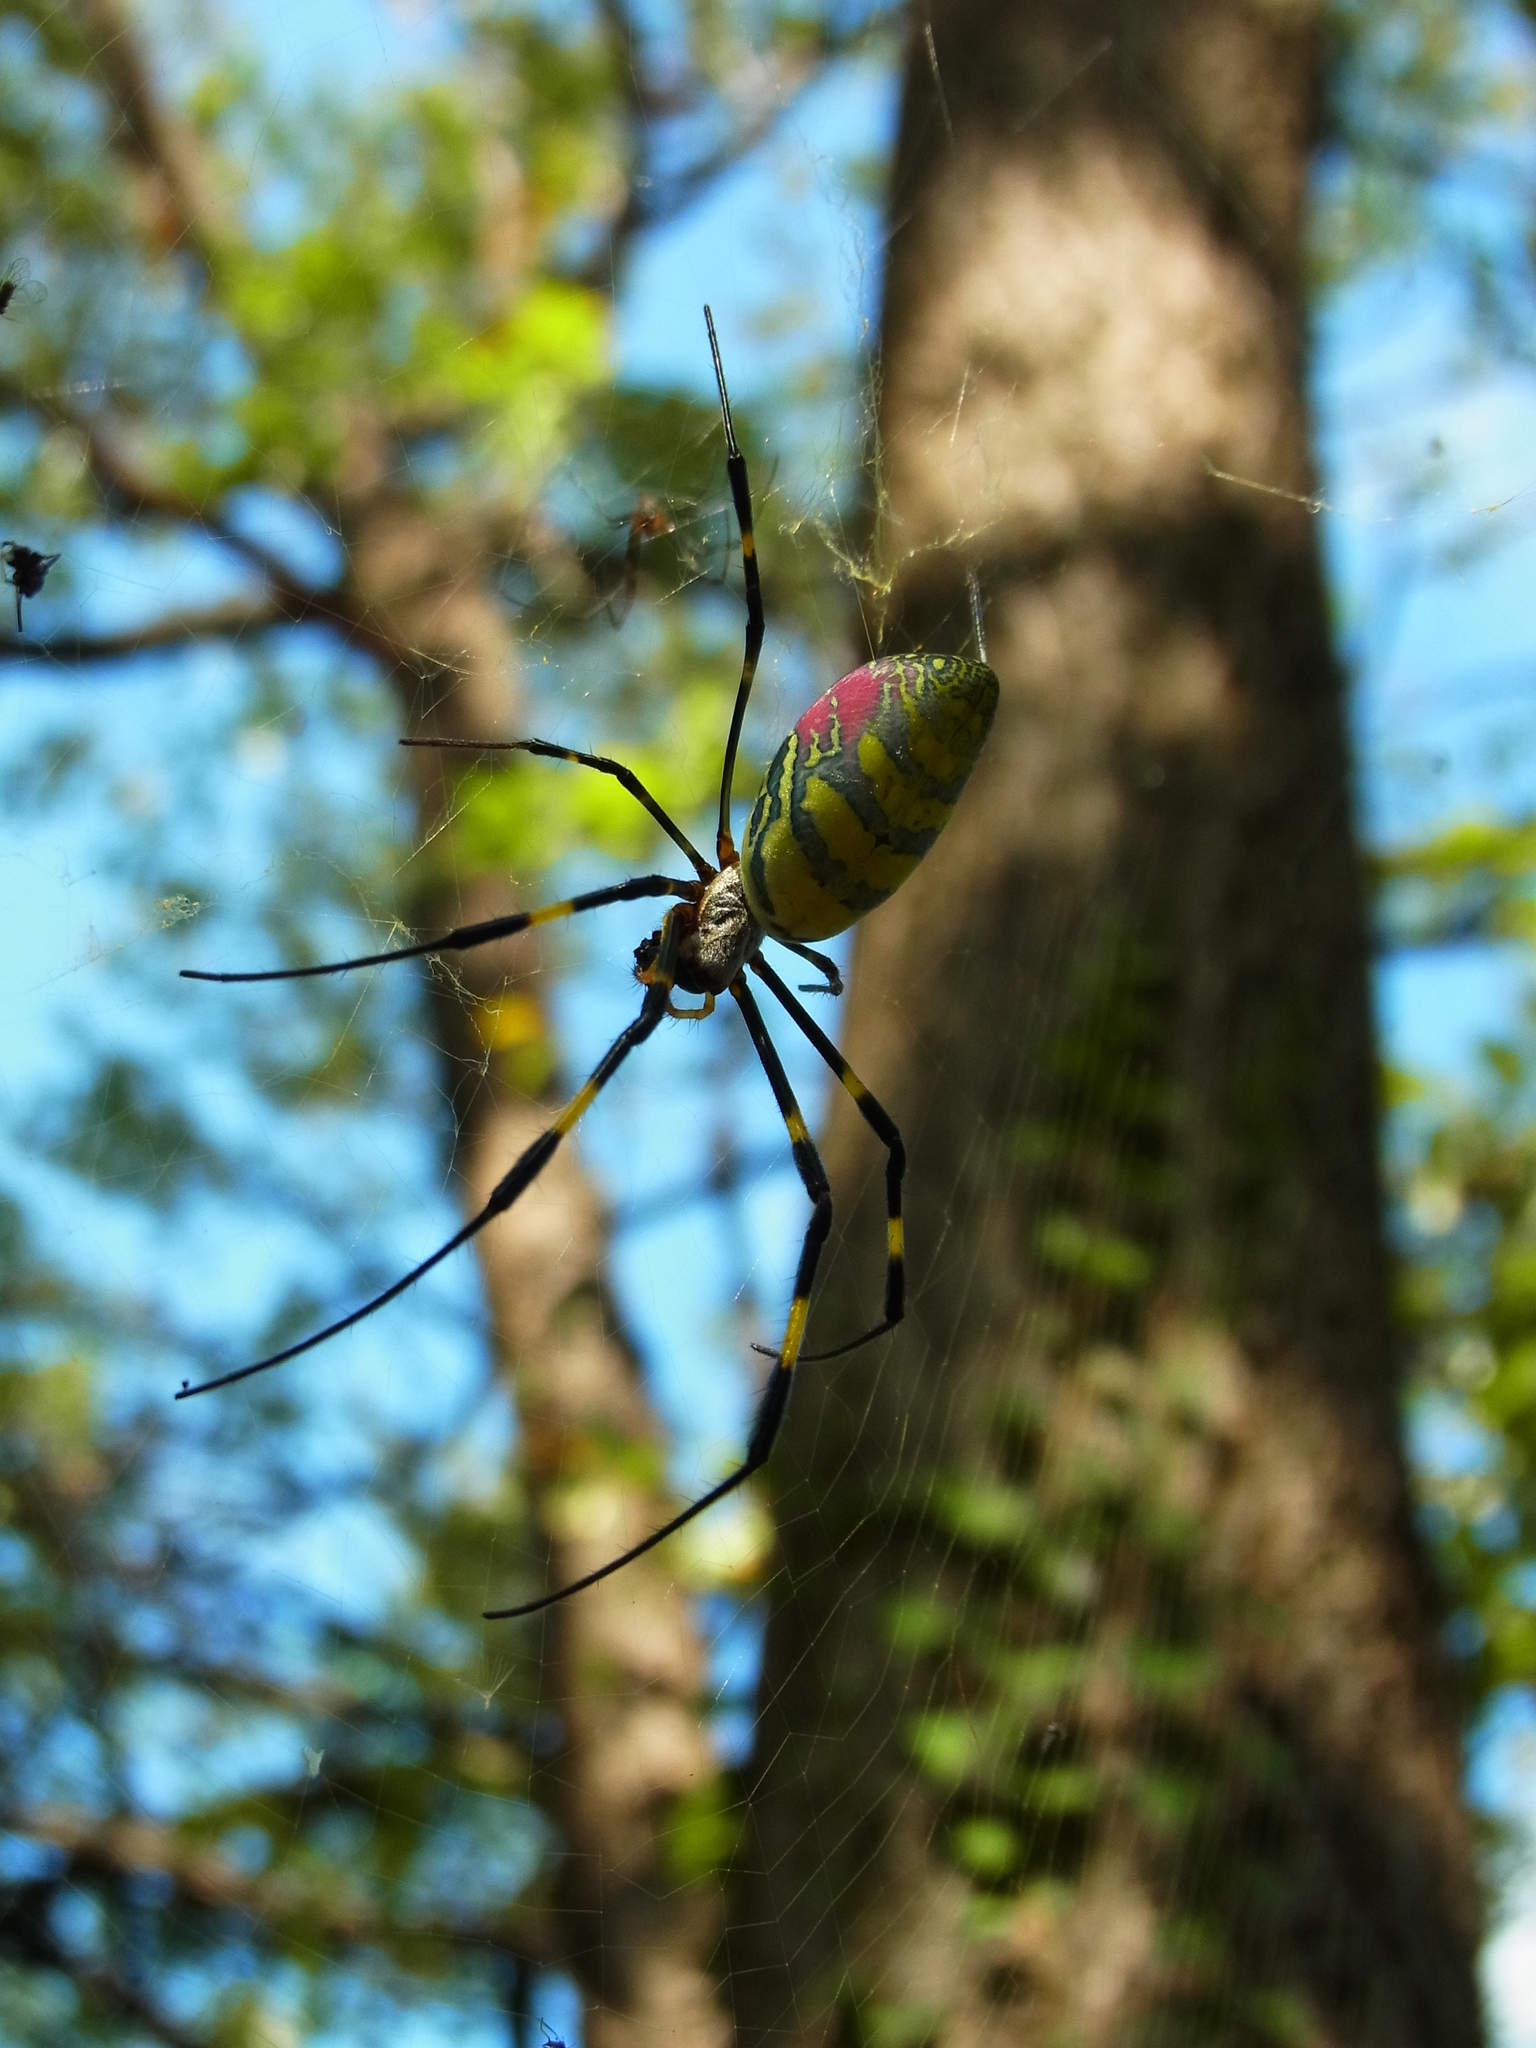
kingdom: Animalia
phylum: Arthropoda
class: Arachnida
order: Araneae
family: Araneidae
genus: Trichonephila
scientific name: Trichonephila clavata
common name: Jorō spider
